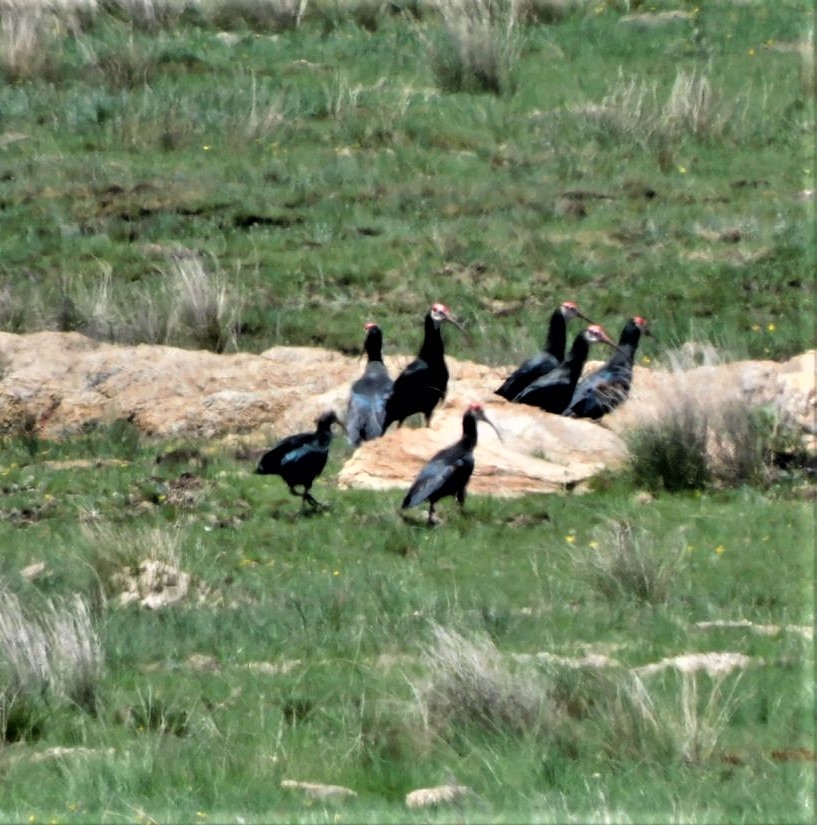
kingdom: Animalia
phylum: Chordata
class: Aves
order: Pelecaniformes
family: Threskiornithidae
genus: Geronticus
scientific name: Geronticus calvus
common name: Southern bald ibis
